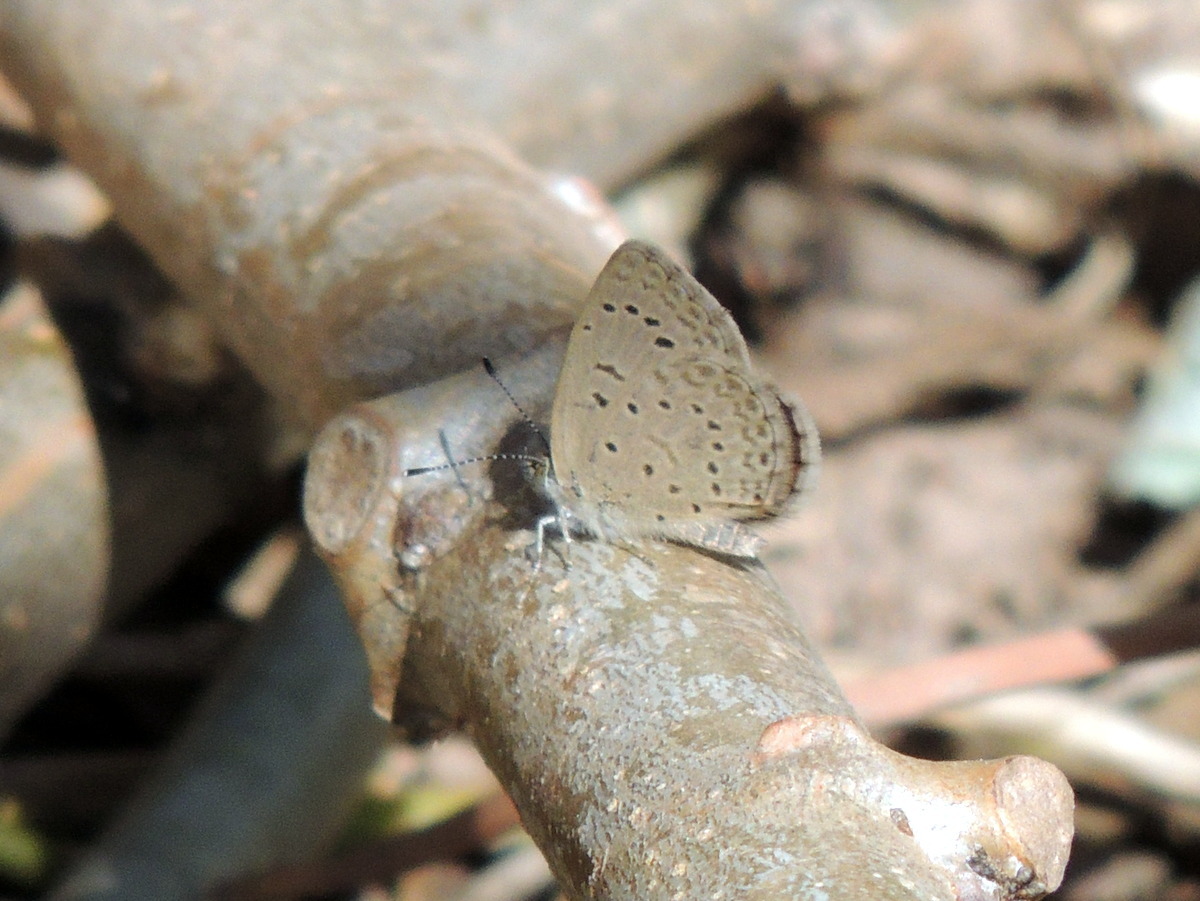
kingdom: Animalia
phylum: Arthropoda
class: Insecta
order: Lepidoptera
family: Lycaenidae
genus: Zizeeria
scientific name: Zizeeria knysna
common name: African grass blue
